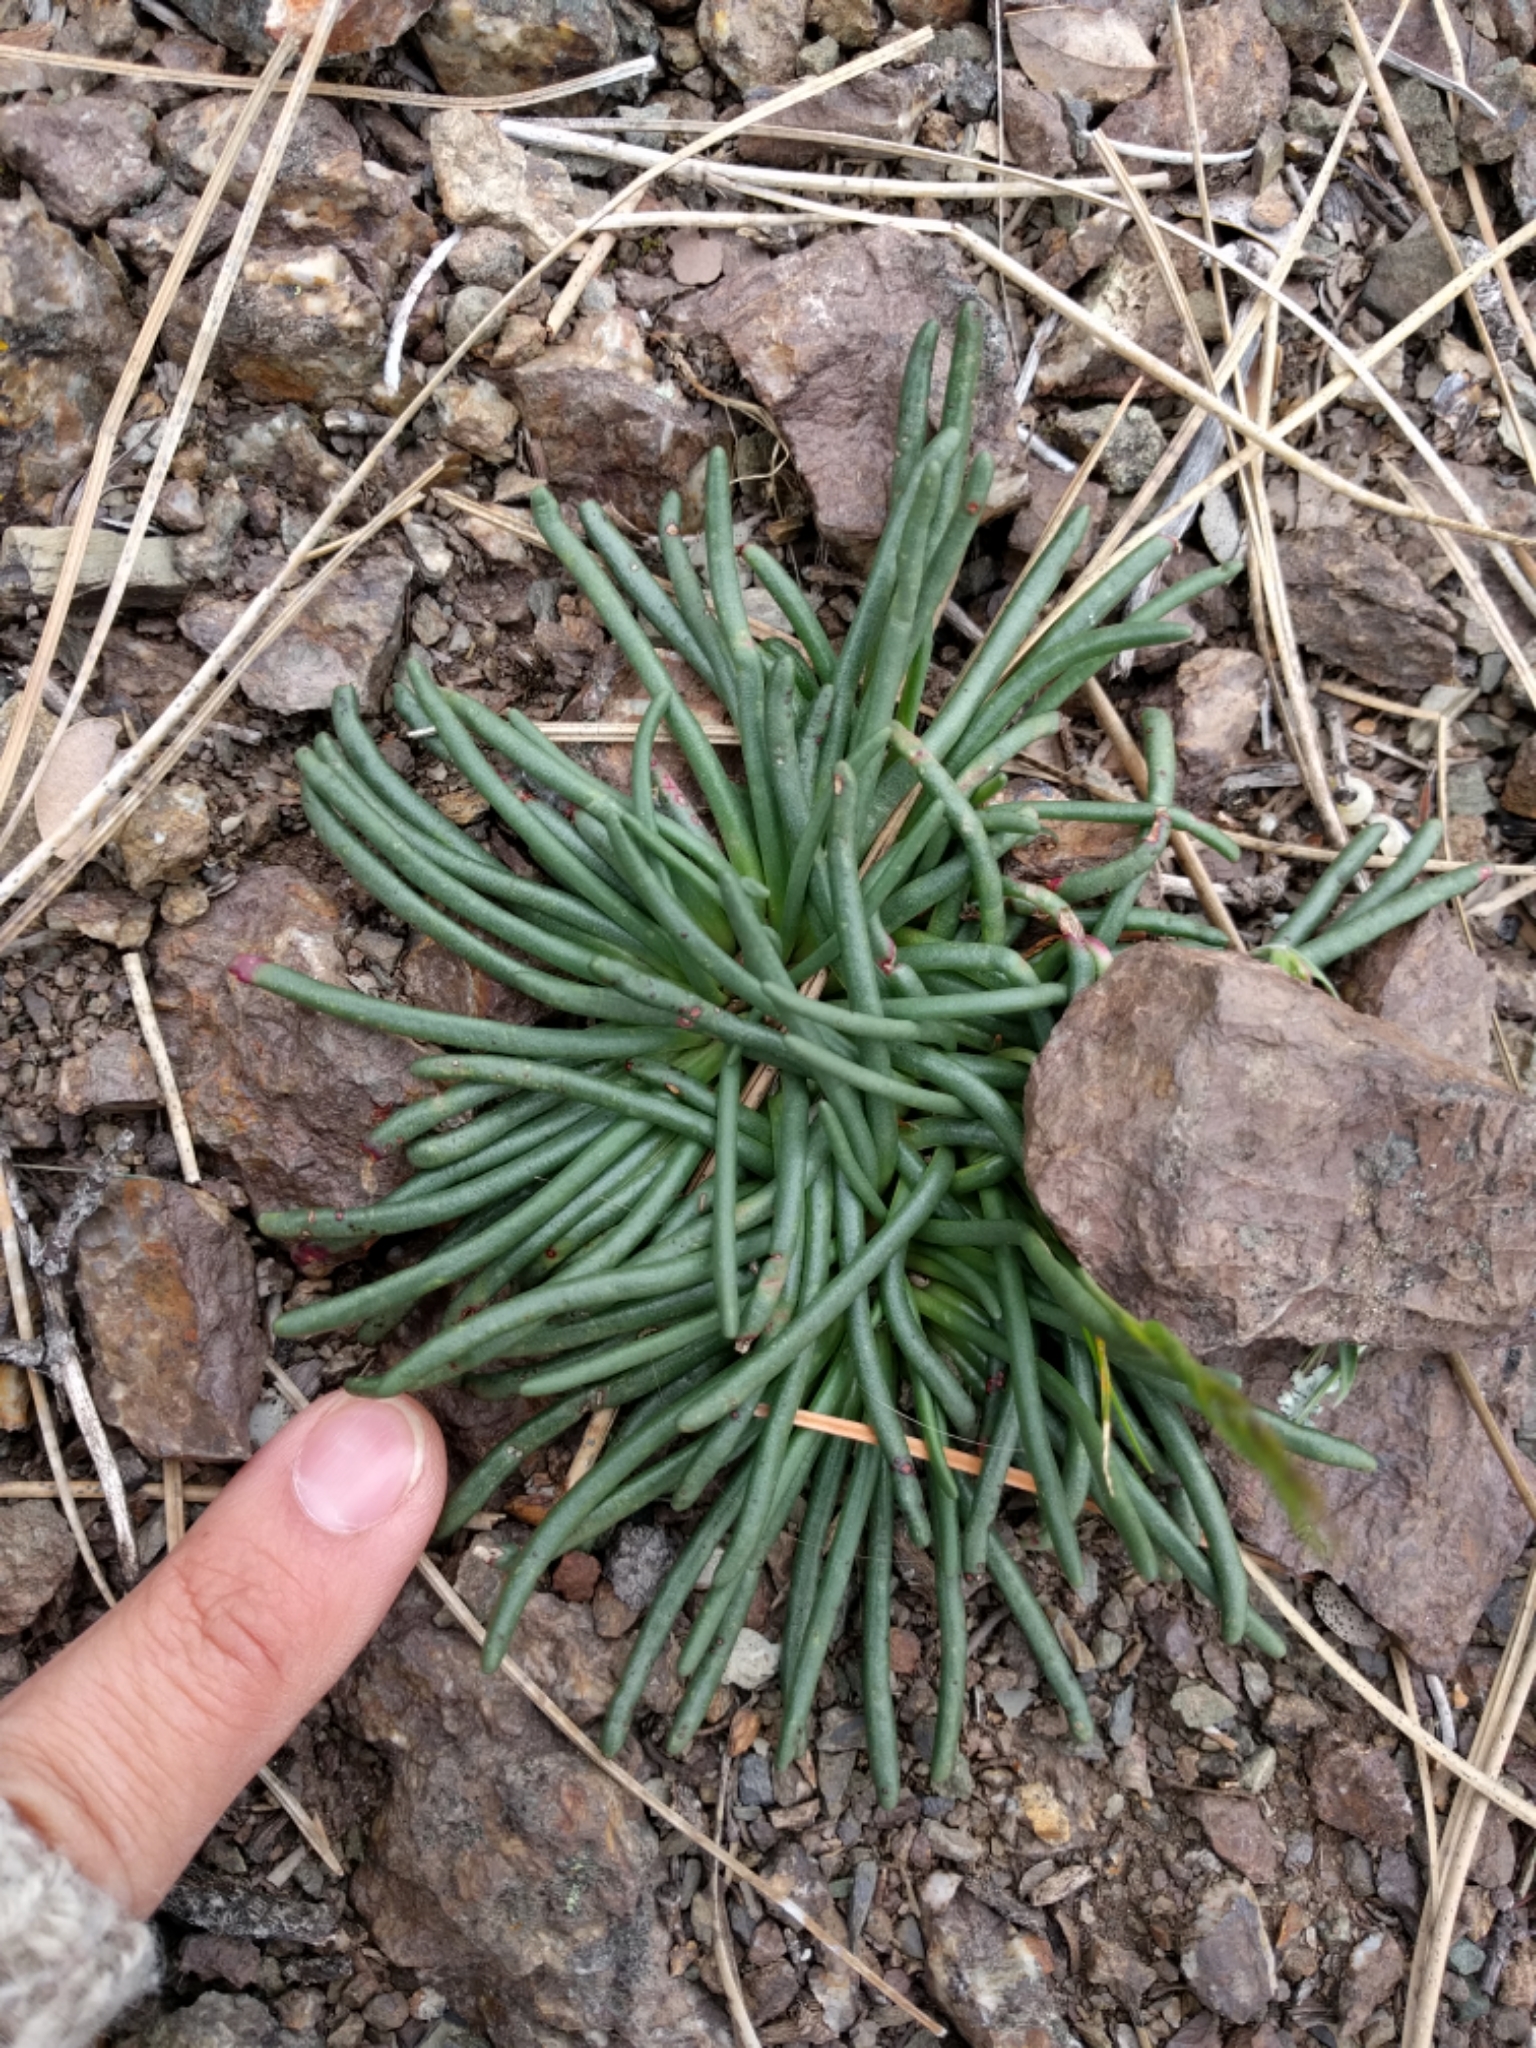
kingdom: Plantae
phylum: Tracheophyta
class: Magnoliopsida
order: Caryophyllales
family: Montiaceae
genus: Lewisia
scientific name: Lewisia rediviva
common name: Bitter-root
